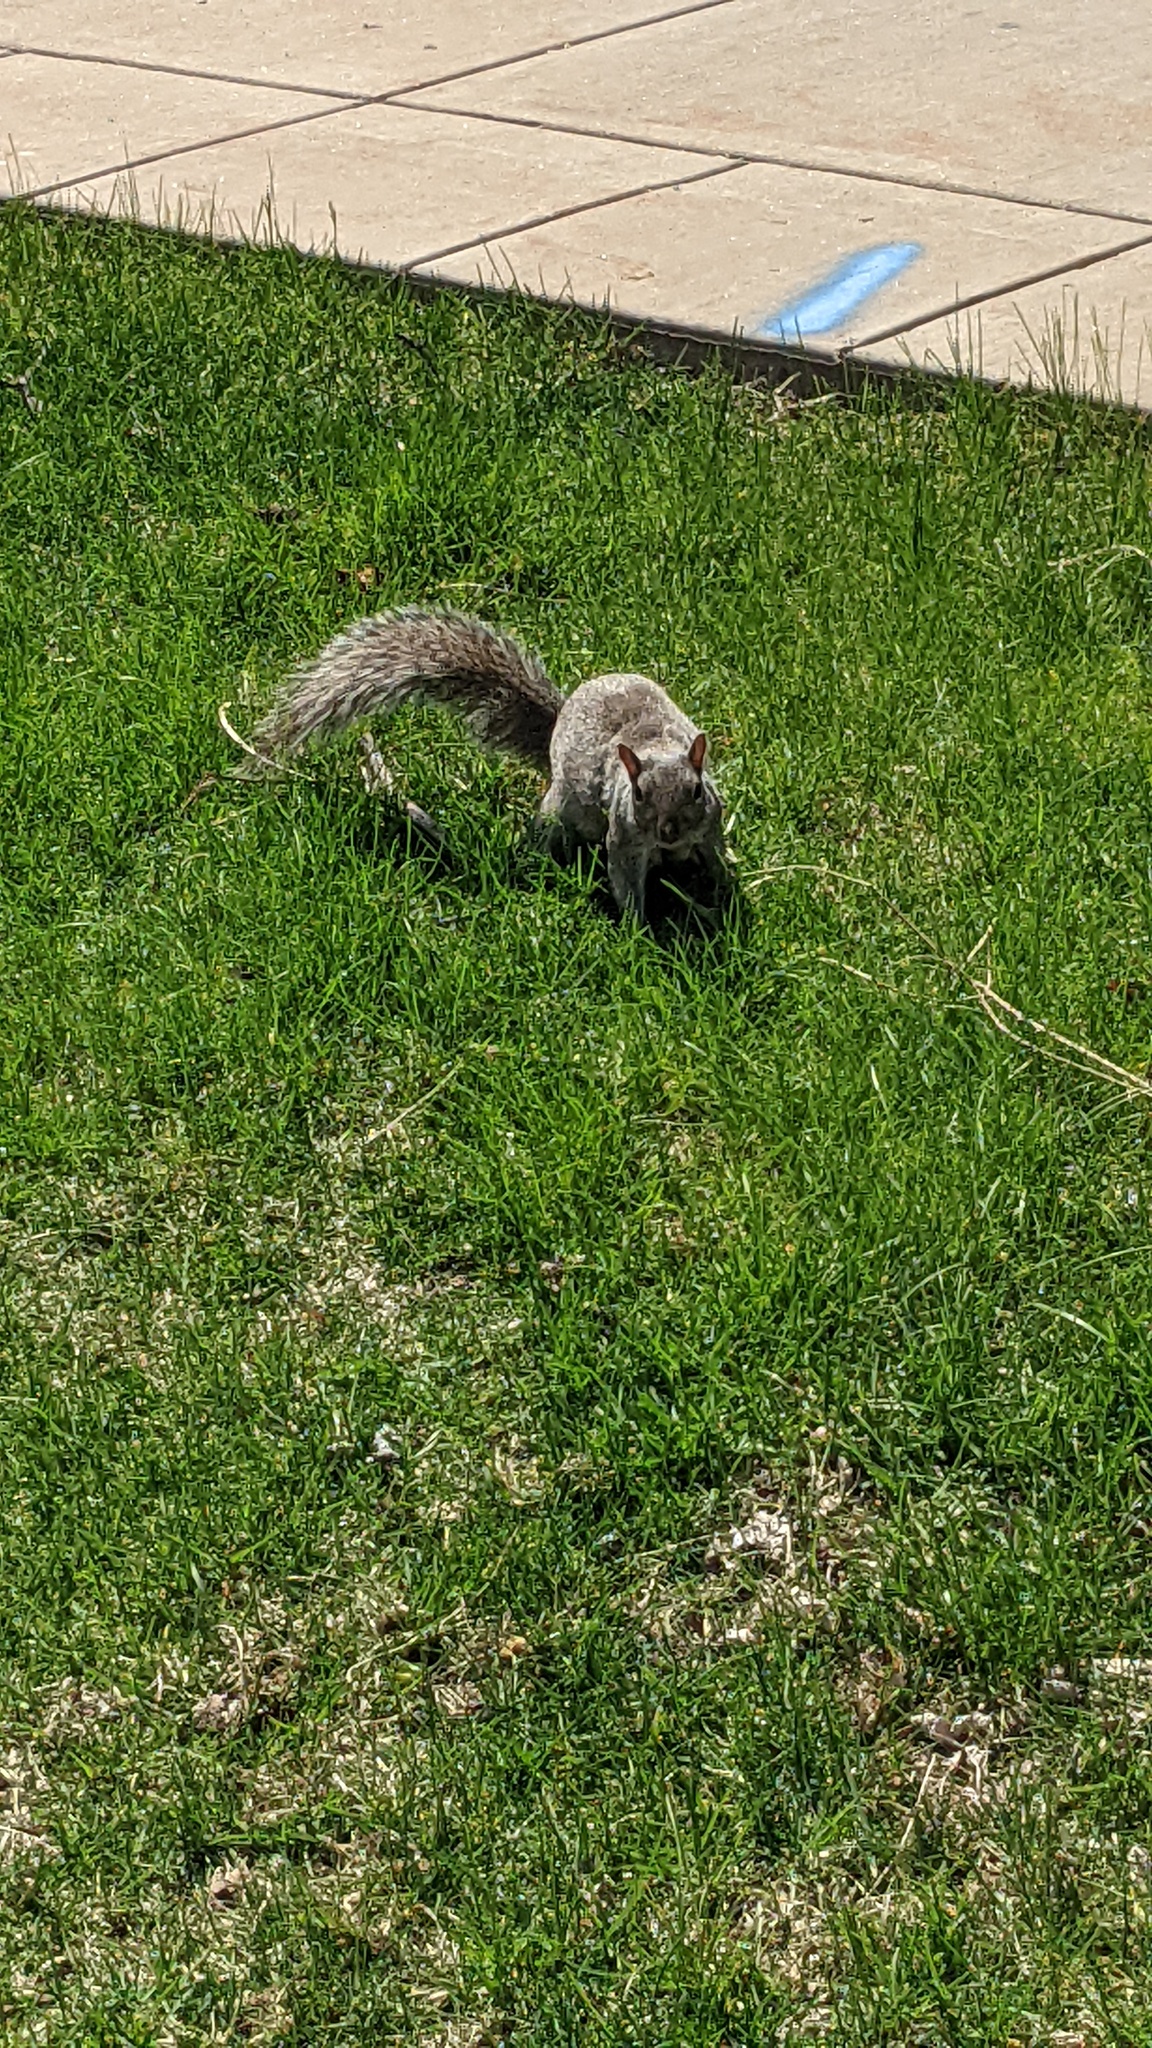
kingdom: Animalia
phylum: Chordata
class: Mammalia
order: Rodentia
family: Sciuridae
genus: Sciurus
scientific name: Sciurus carolinensis
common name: Eastern gray squirrel
